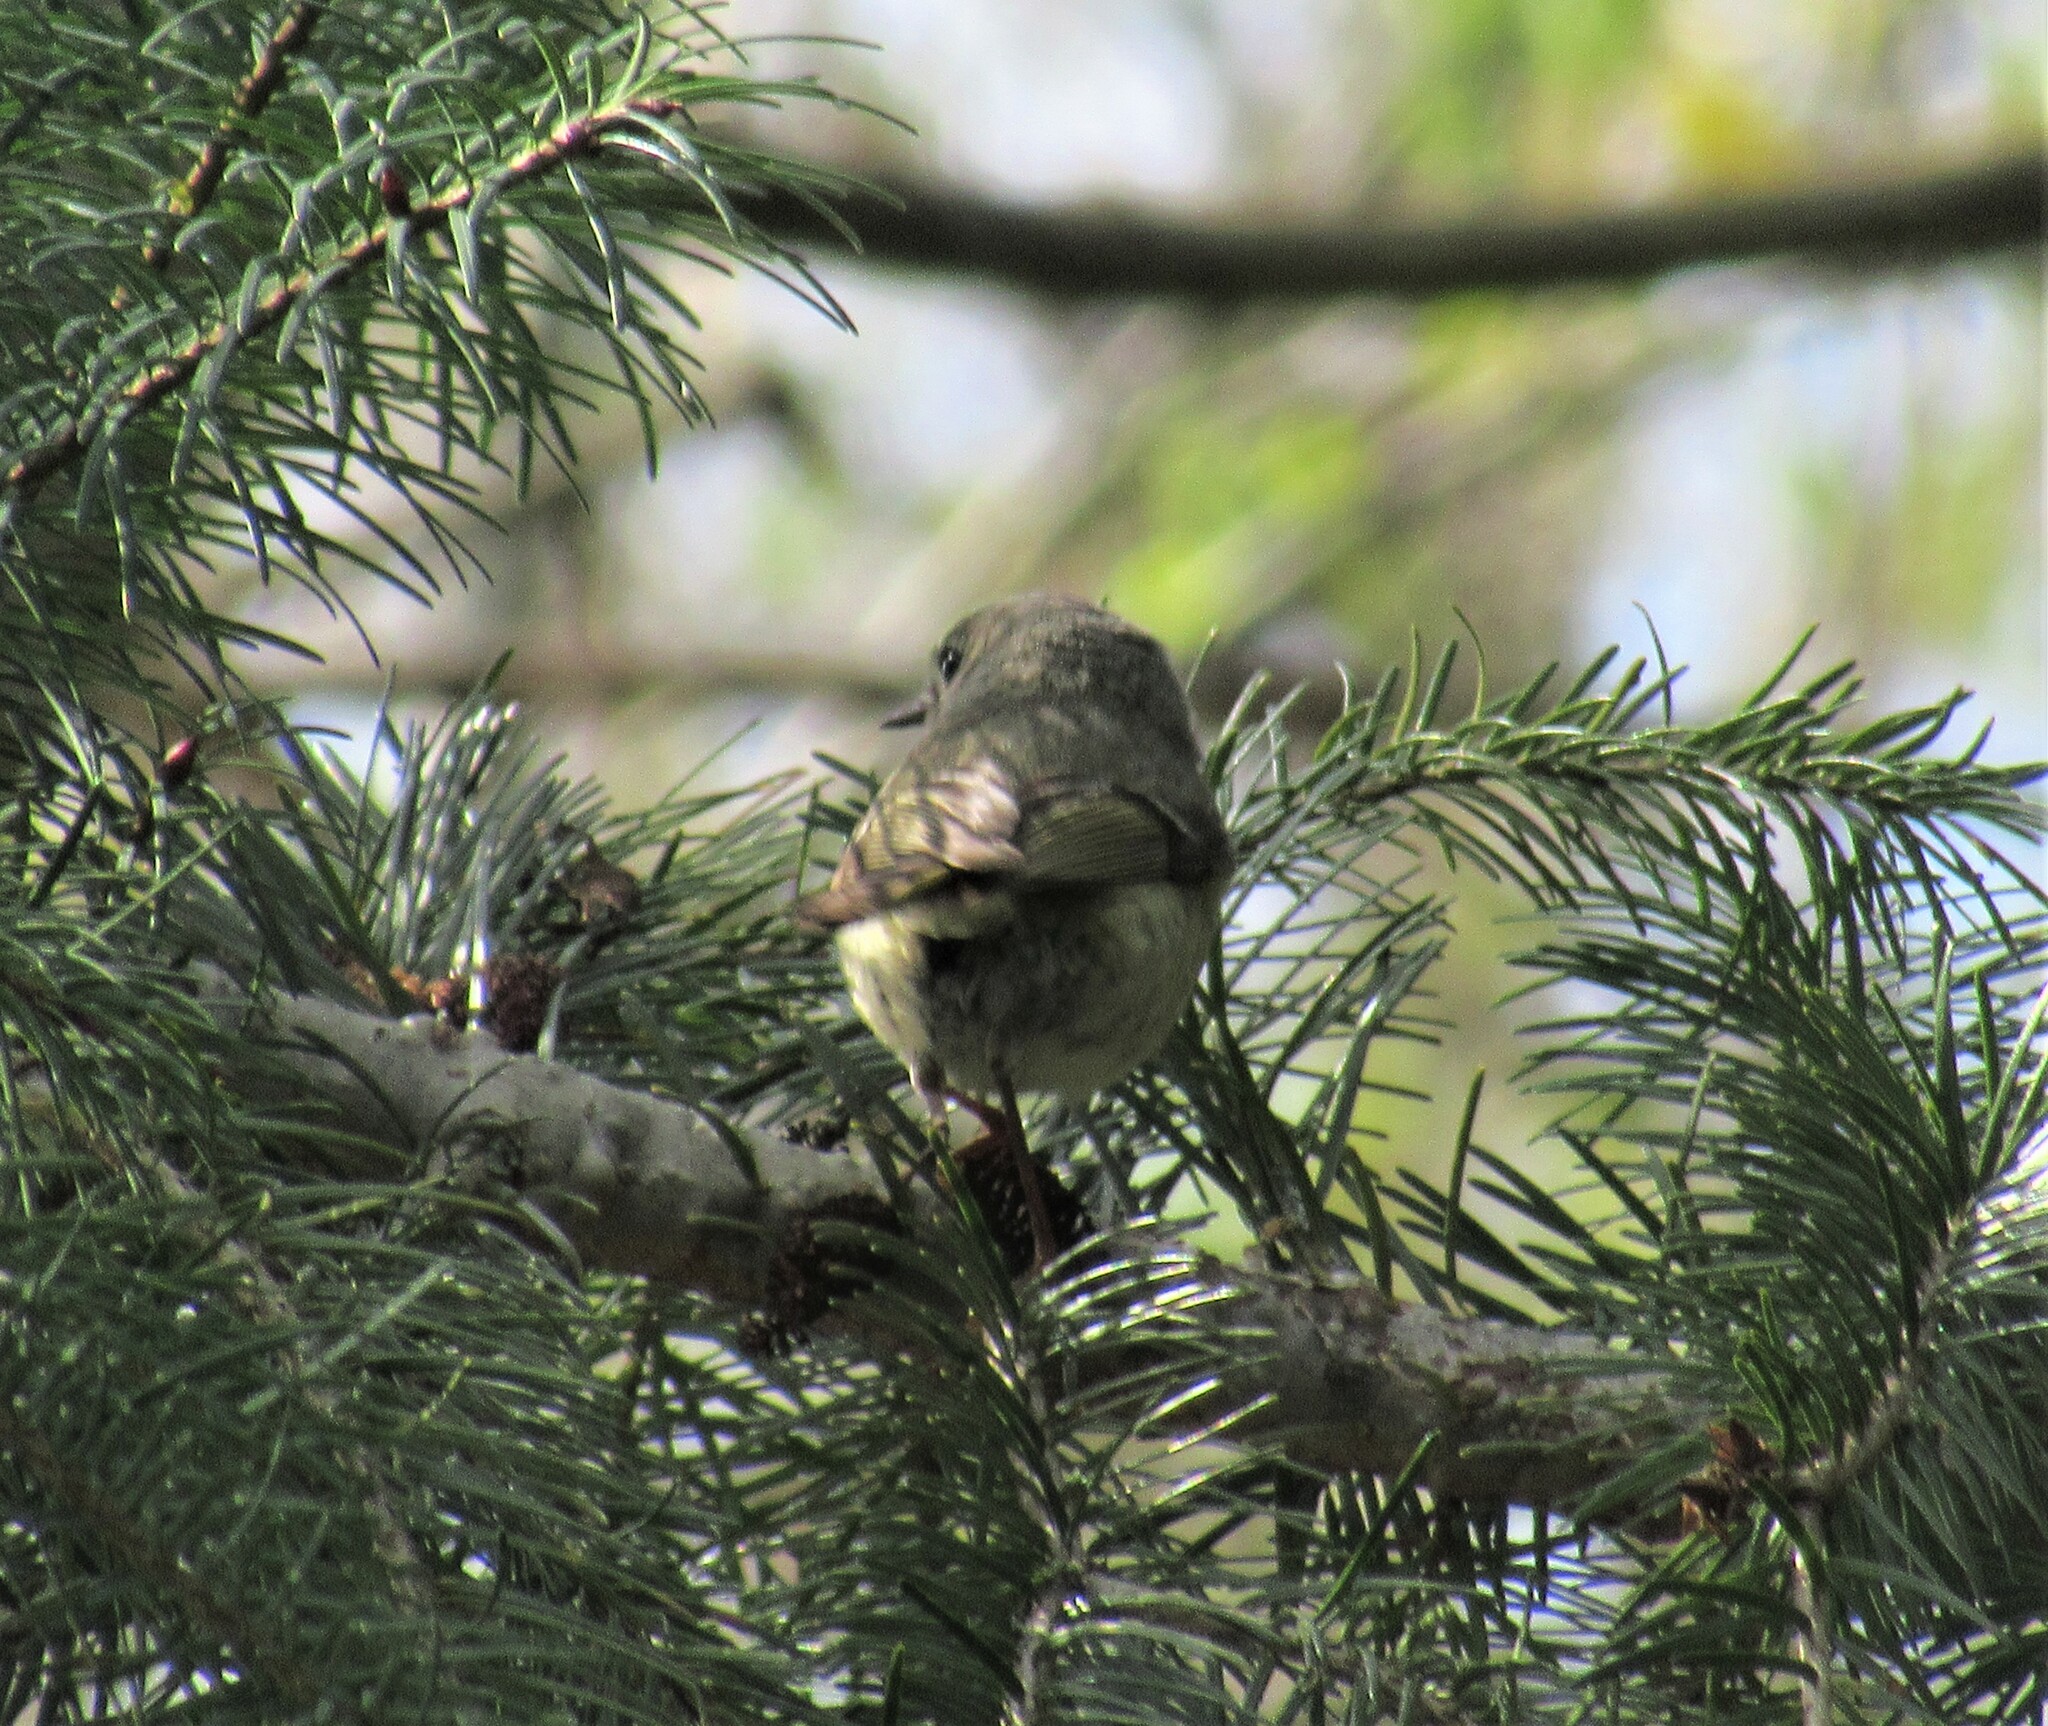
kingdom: Animalia
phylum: Chordata
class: Aves
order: Passeriformes
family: Regulidae
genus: Regulus
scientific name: Regulus calendula
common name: Ruby-crowned kinglet
